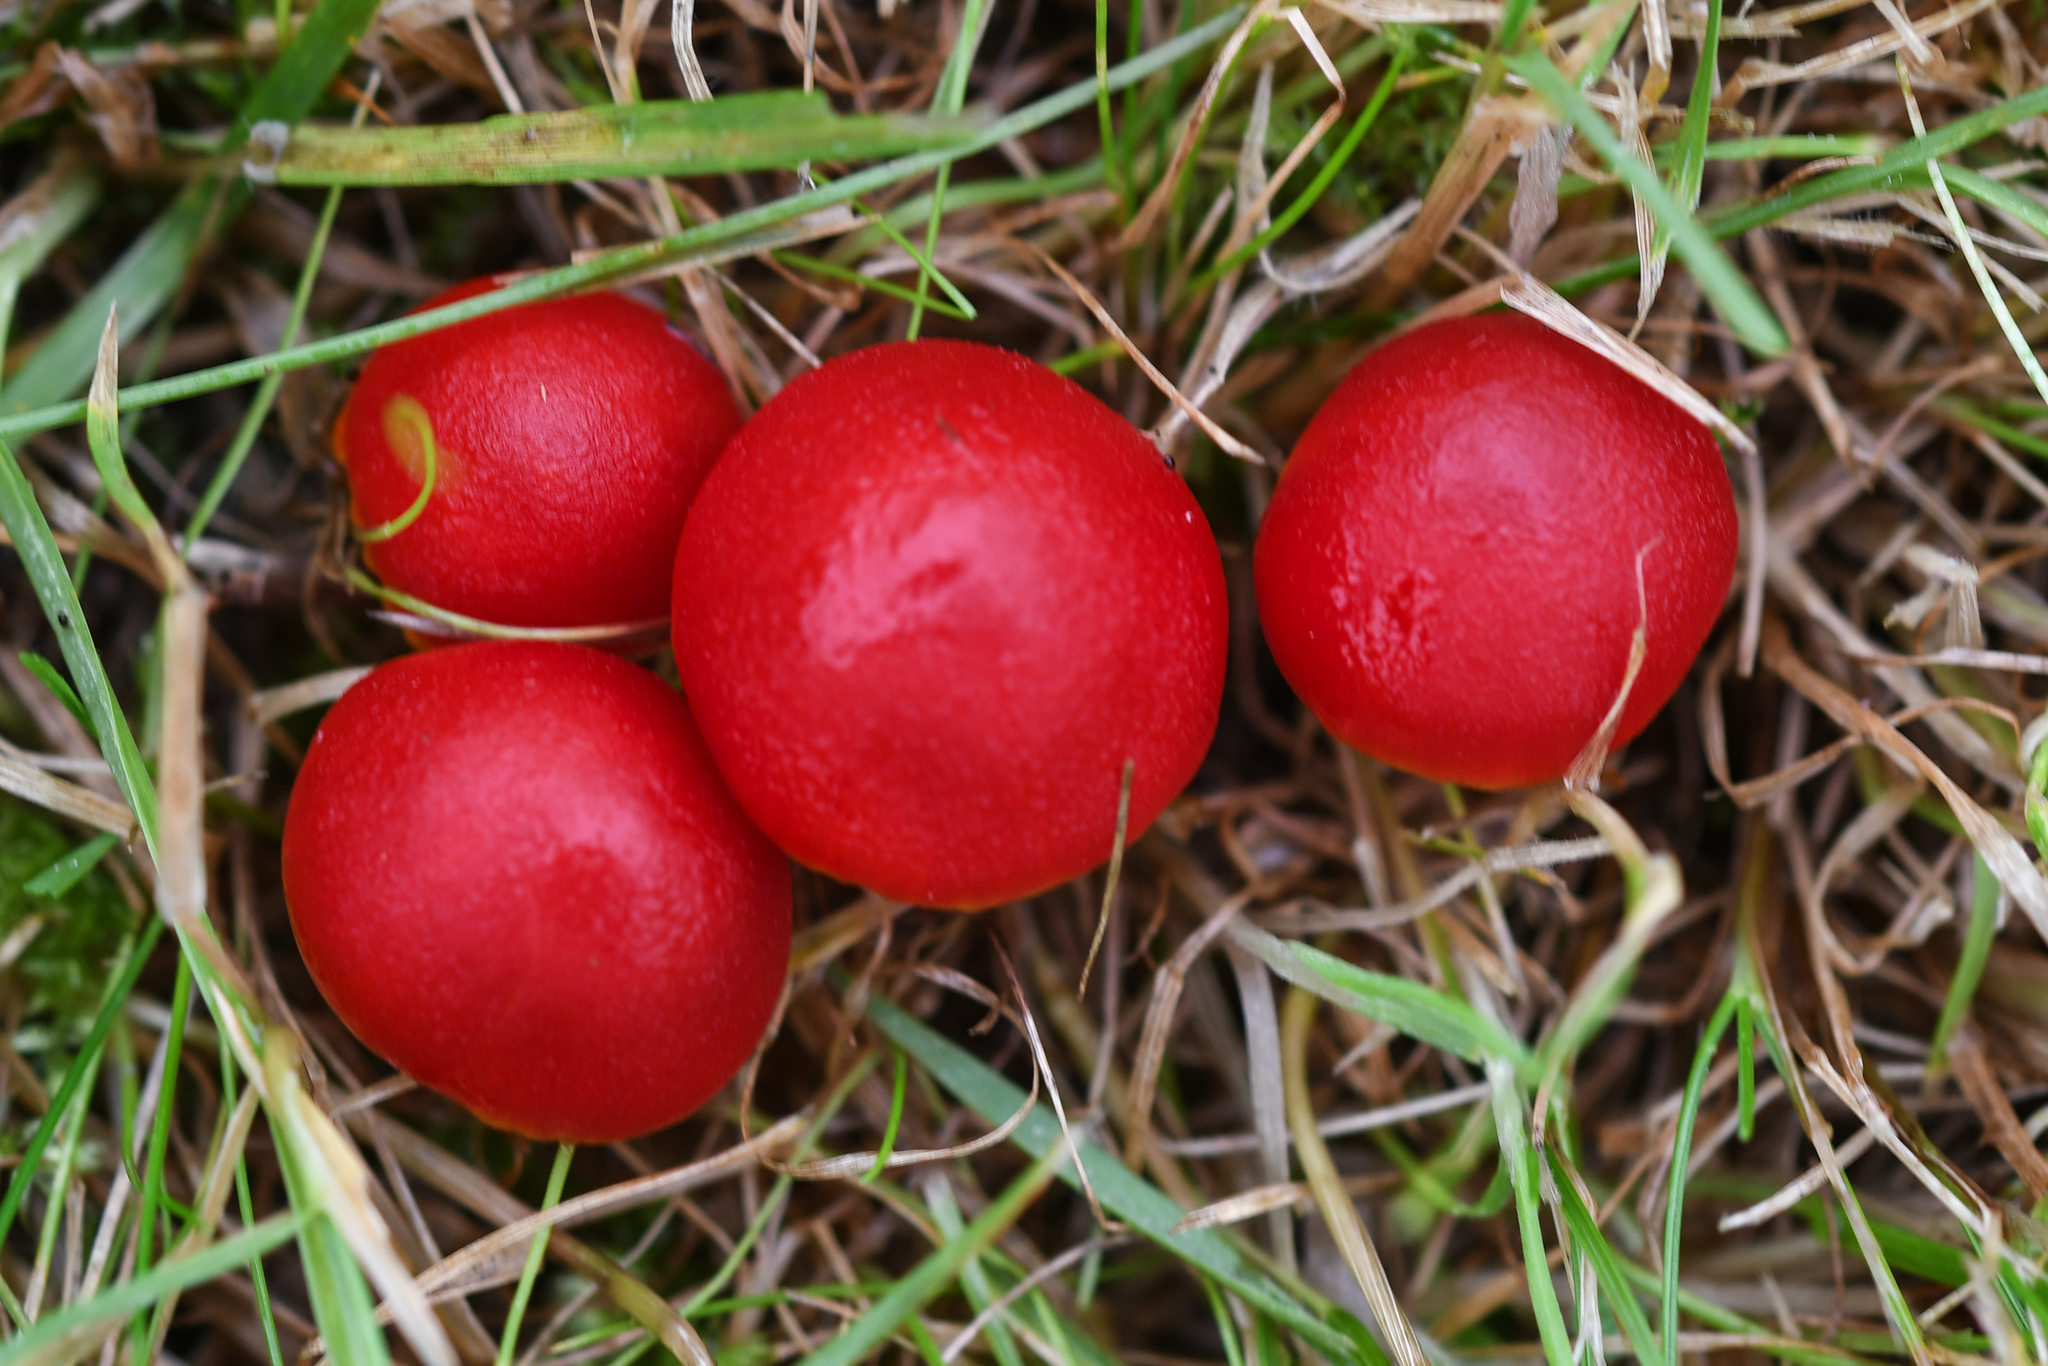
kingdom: Fungi
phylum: Basidiomycota
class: Agaricomycetes
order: Agaricales
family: Hygrophoraceae
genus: Hygrocybe
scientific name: Hygrocybe coccinea
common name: Scarlet hood
